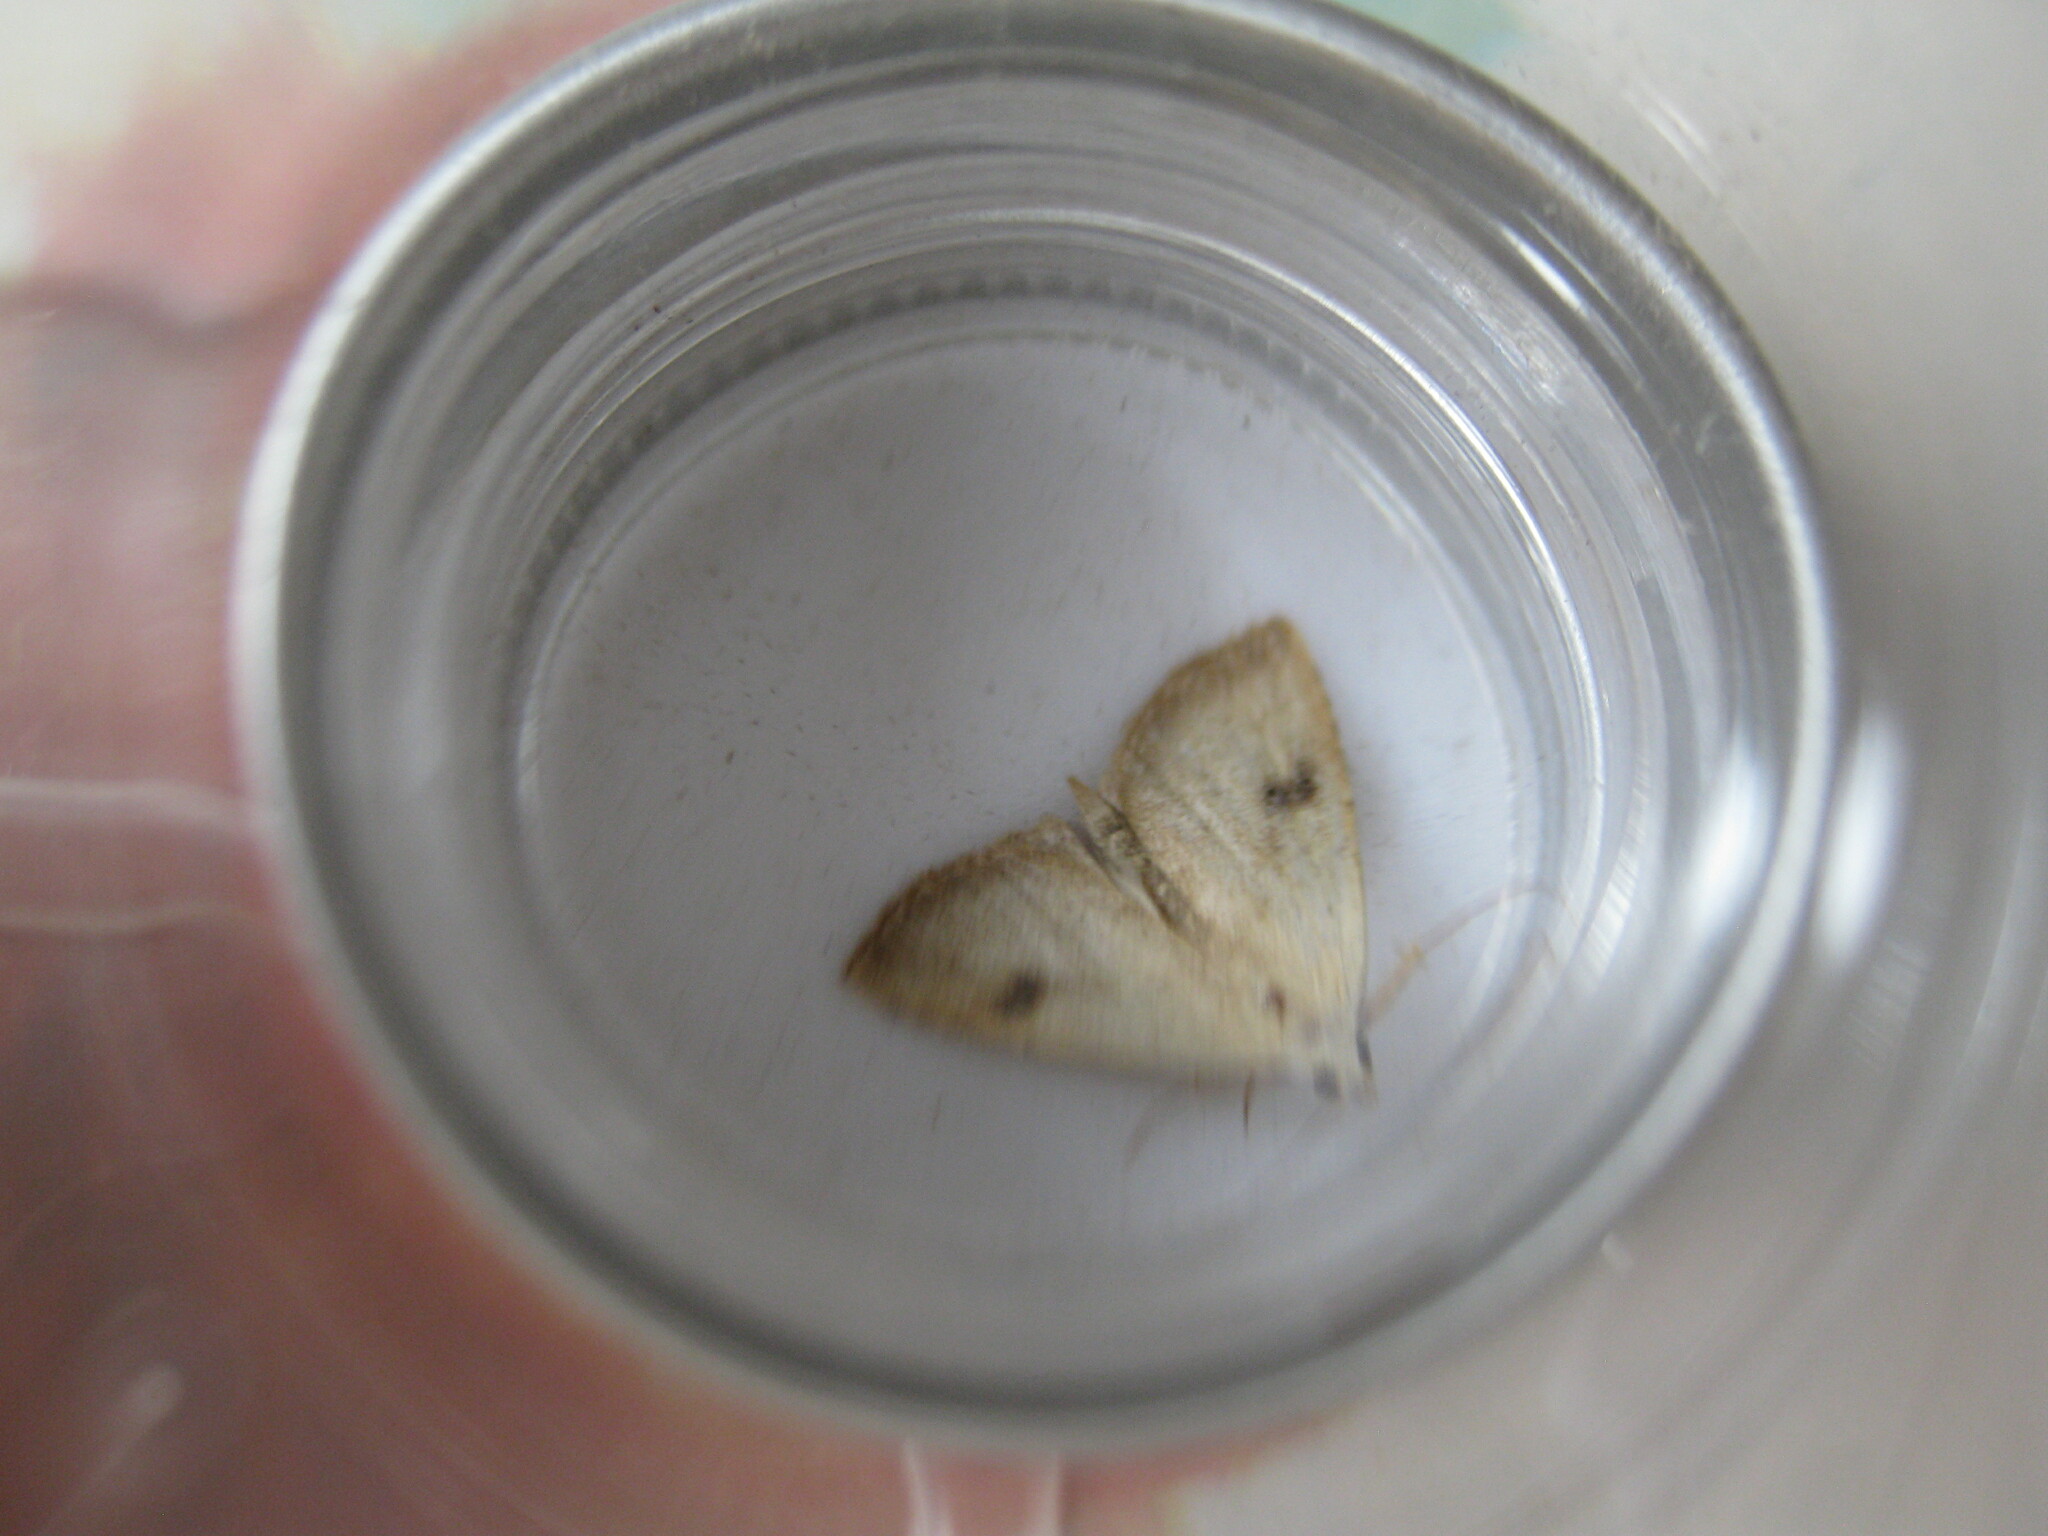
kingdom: Animalia
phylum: Arthropoda
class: Insecta
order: Lepidoptera
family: Erebidae
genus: Rivula
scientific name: Rivula sericealis
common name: Straw dot
